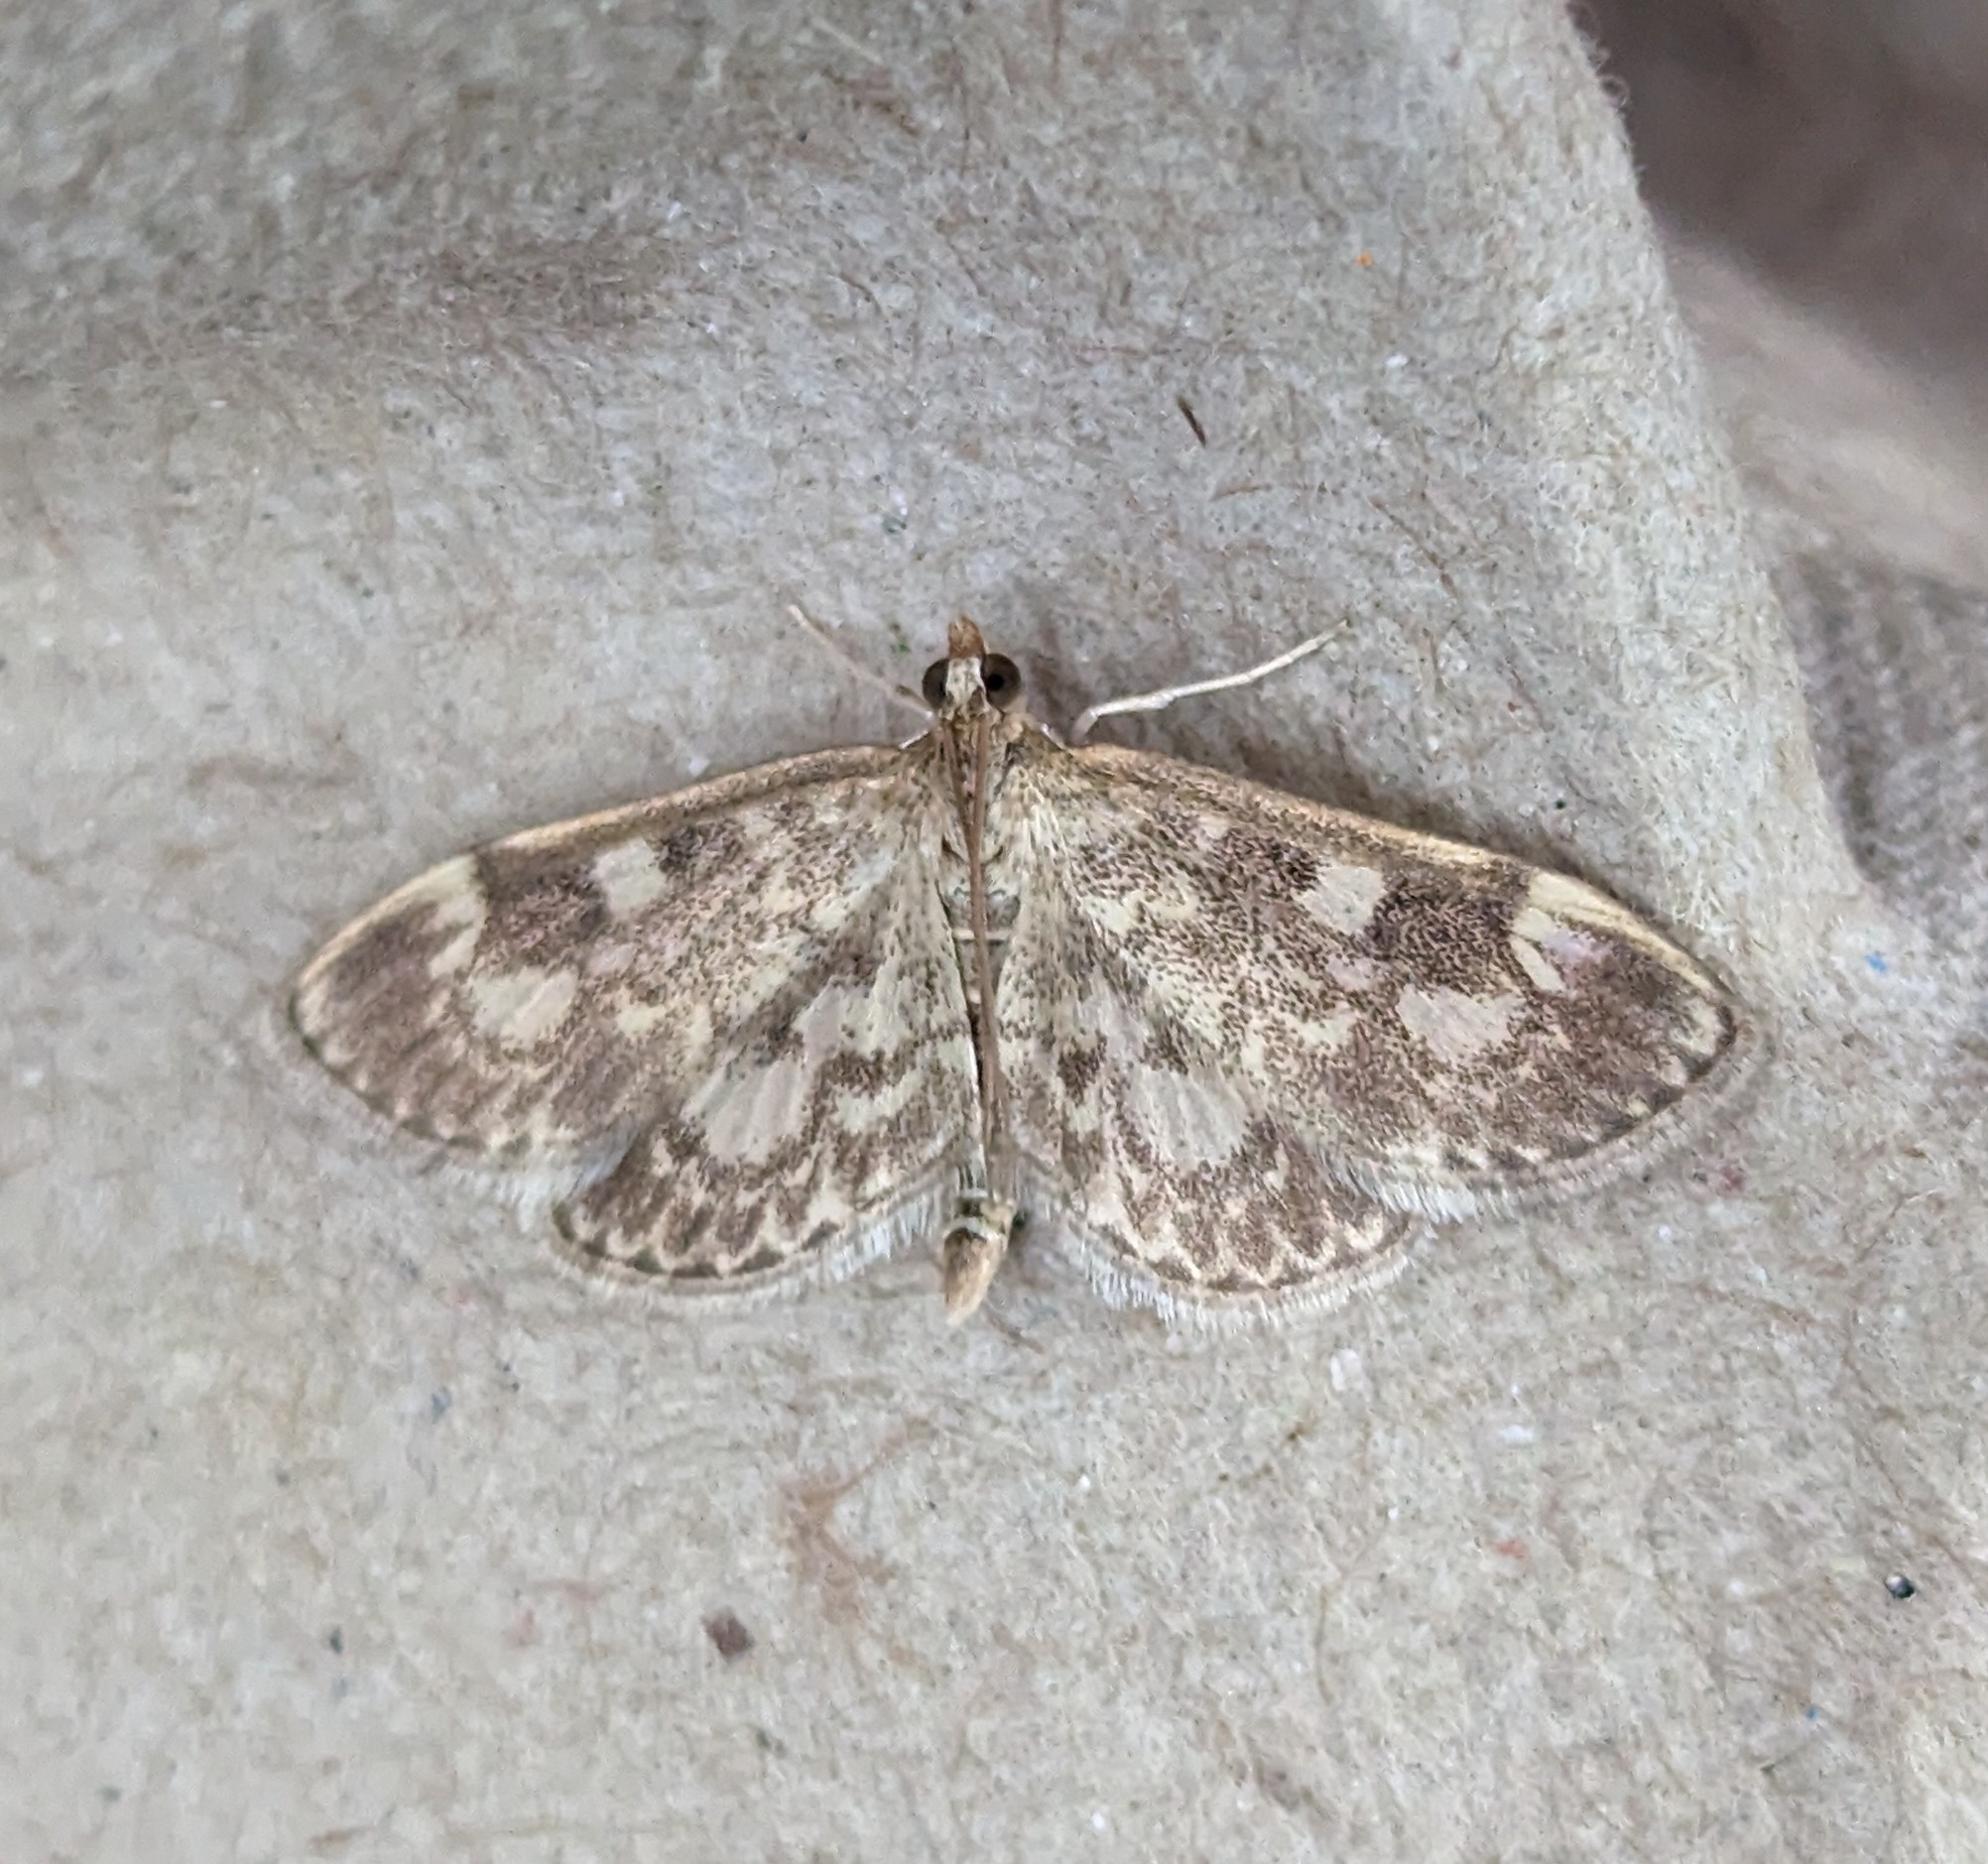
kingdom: Animalia
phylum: Arthropoda
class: Insecta
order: Lepidoptera
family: Crambidae
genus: Anania
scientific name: Anania tertialis
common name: Crowned phylctaenia moth
